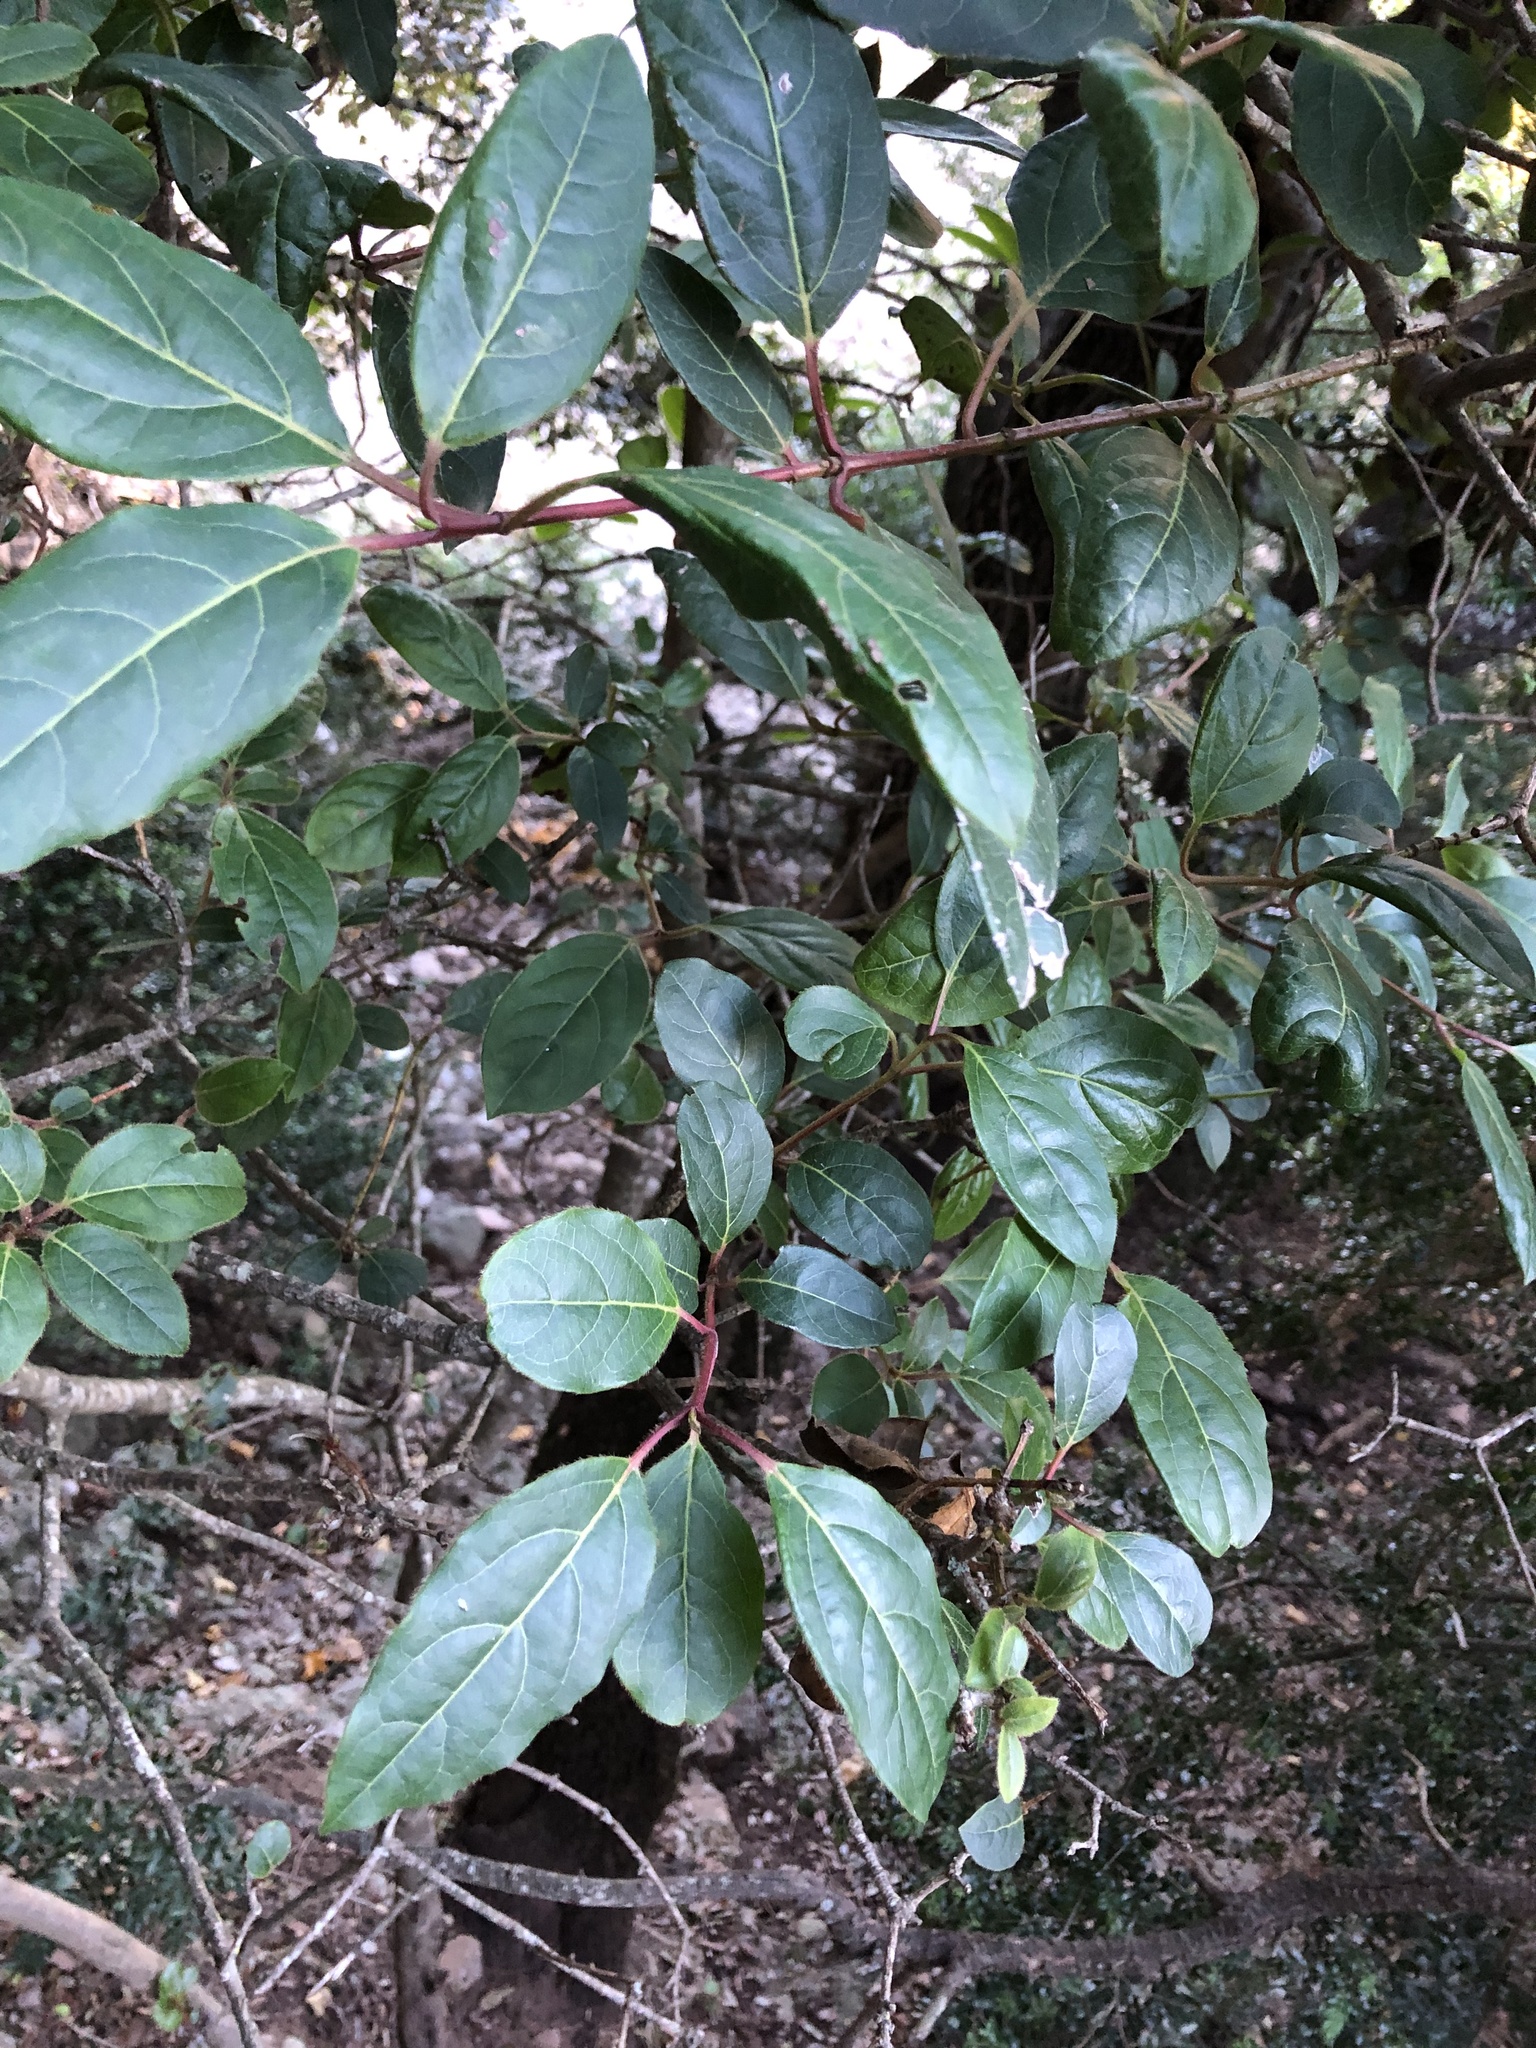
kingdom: Plantae
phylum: Tracheophyta
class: Magnoliopsida
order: Dipsacales
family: Viburnaceae
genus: Viburnum
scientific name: Viburnum tinus
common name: Laurustinus
